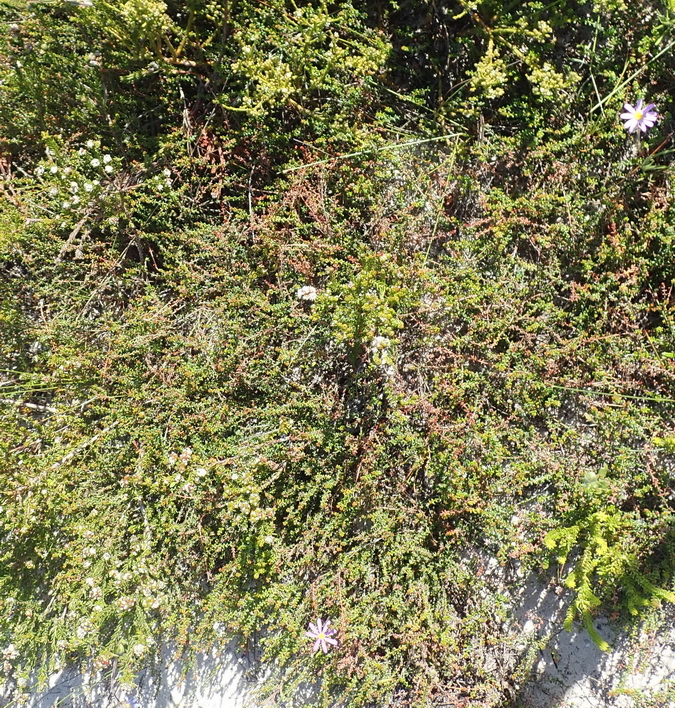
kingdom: Plantae
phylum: Tracheophyta
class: Magnoliopsida
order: Rosales
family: Rhamnaceae
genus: Phylica
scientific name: Phylica selaginoides
